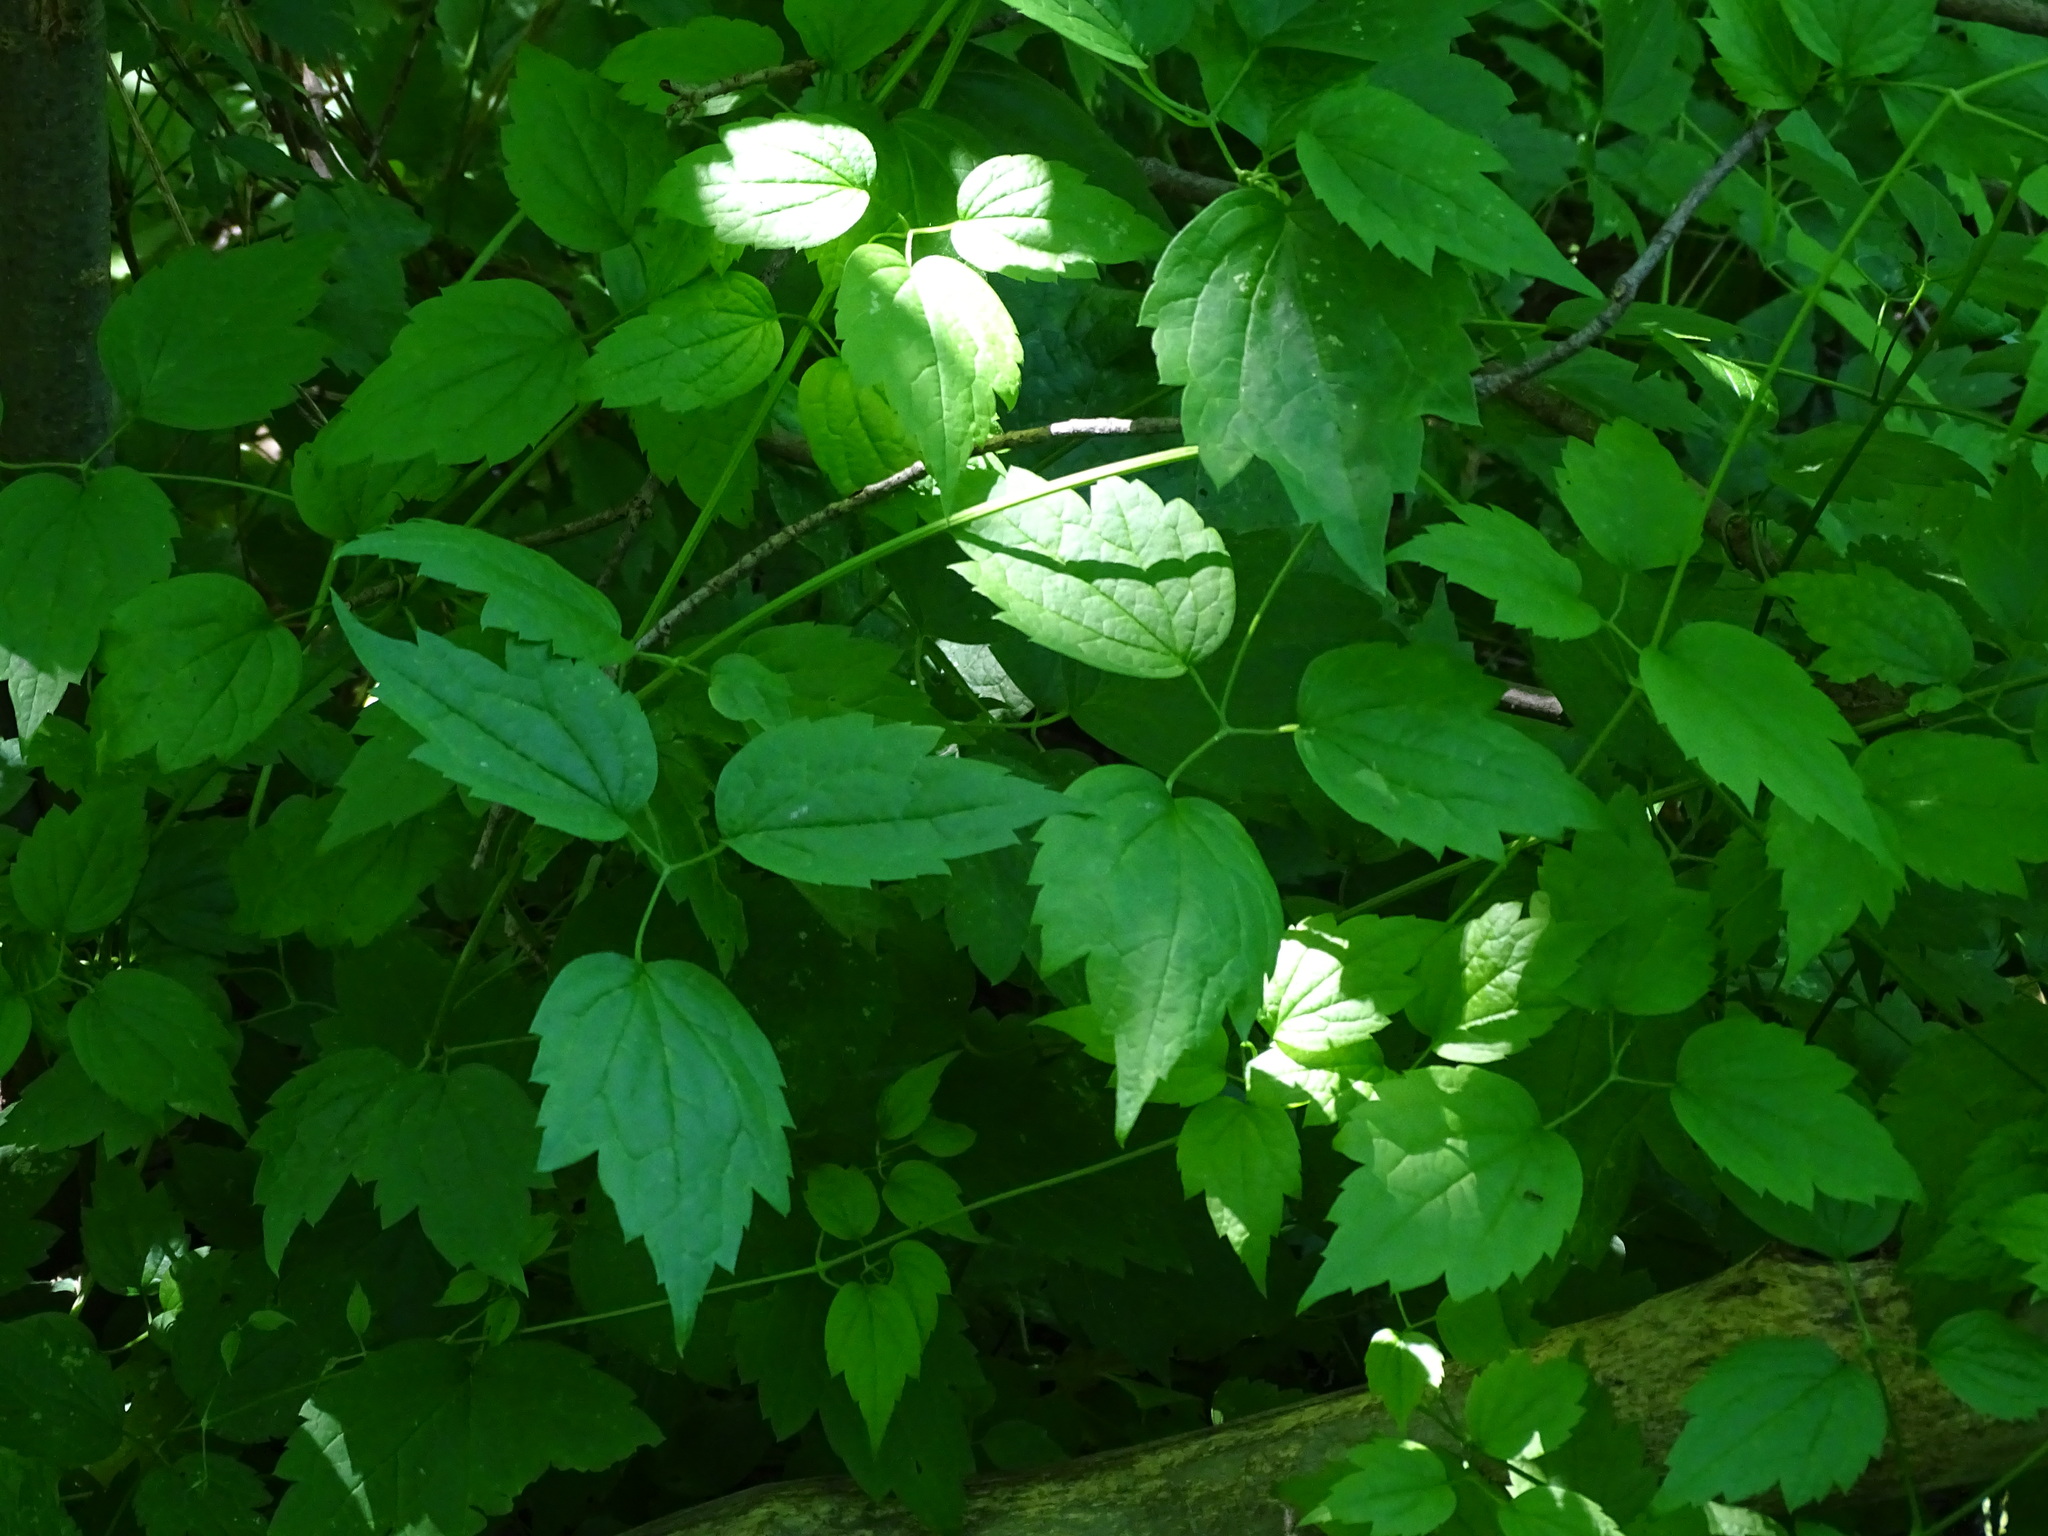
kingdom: Plantae
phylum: Tracheophyta
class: Magnoliopsida
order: Ranunculales
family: Ranunculaceae
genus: Clematis
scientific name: Clematis virginiana
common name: Virgin's-bower
